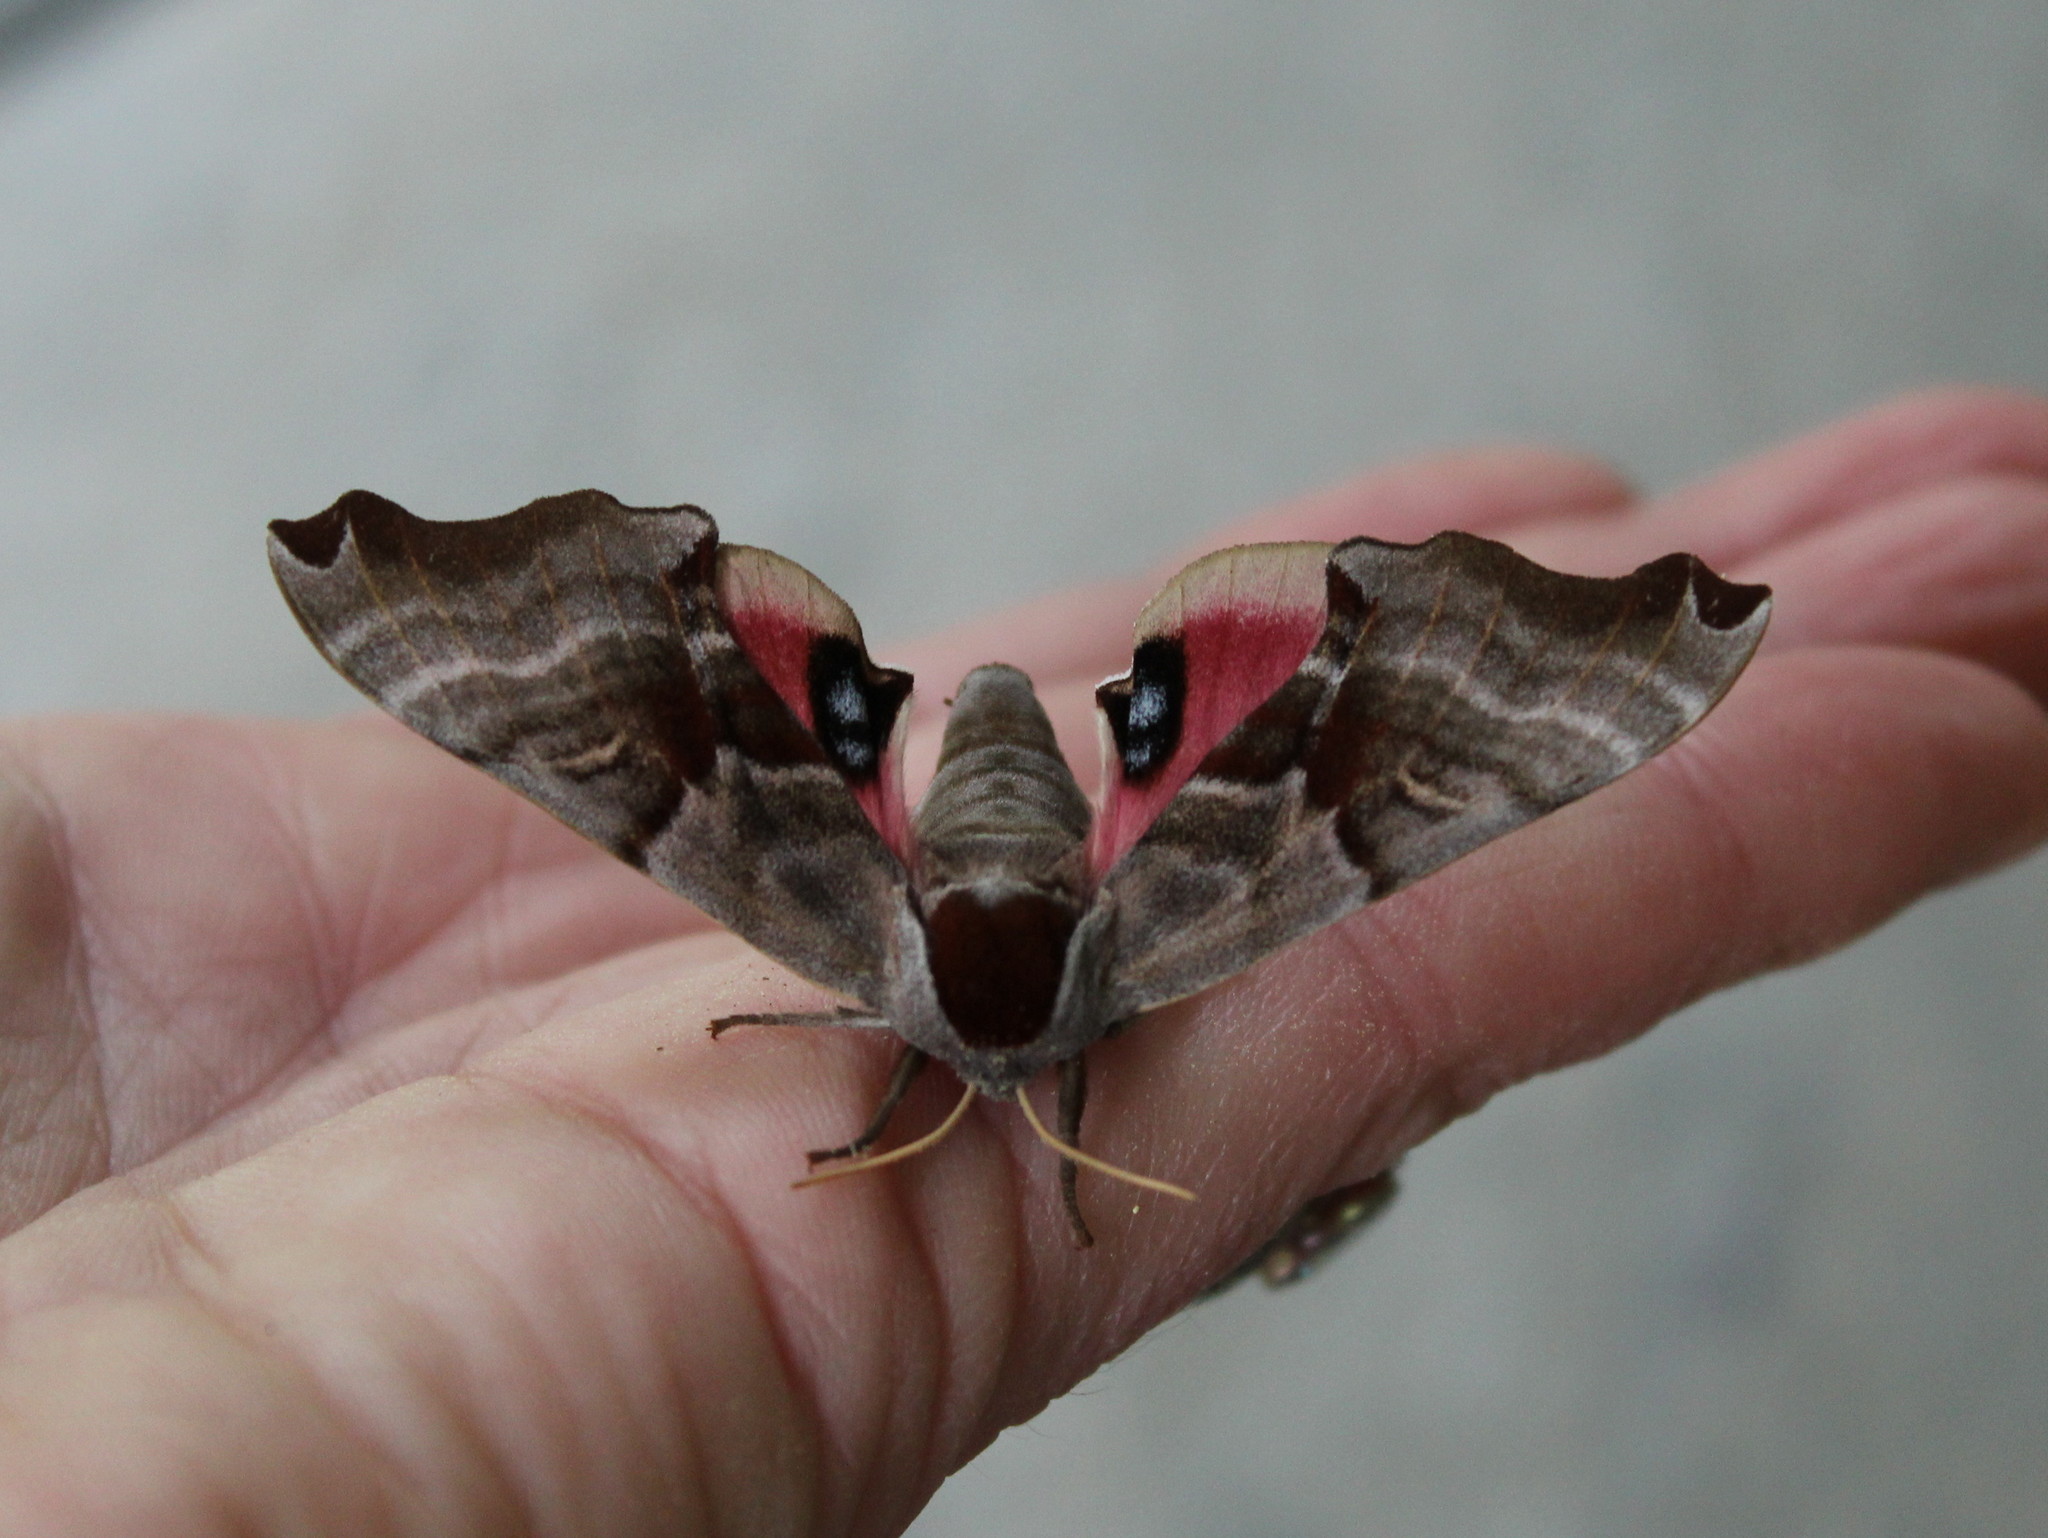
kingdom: Animalia
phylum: Arthropoda
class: Insecta
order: Lepidoptera
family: Sphingidae
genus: Smerinthus
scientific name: Smerinthus jamaicensis
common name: Twin spotted sphinx
